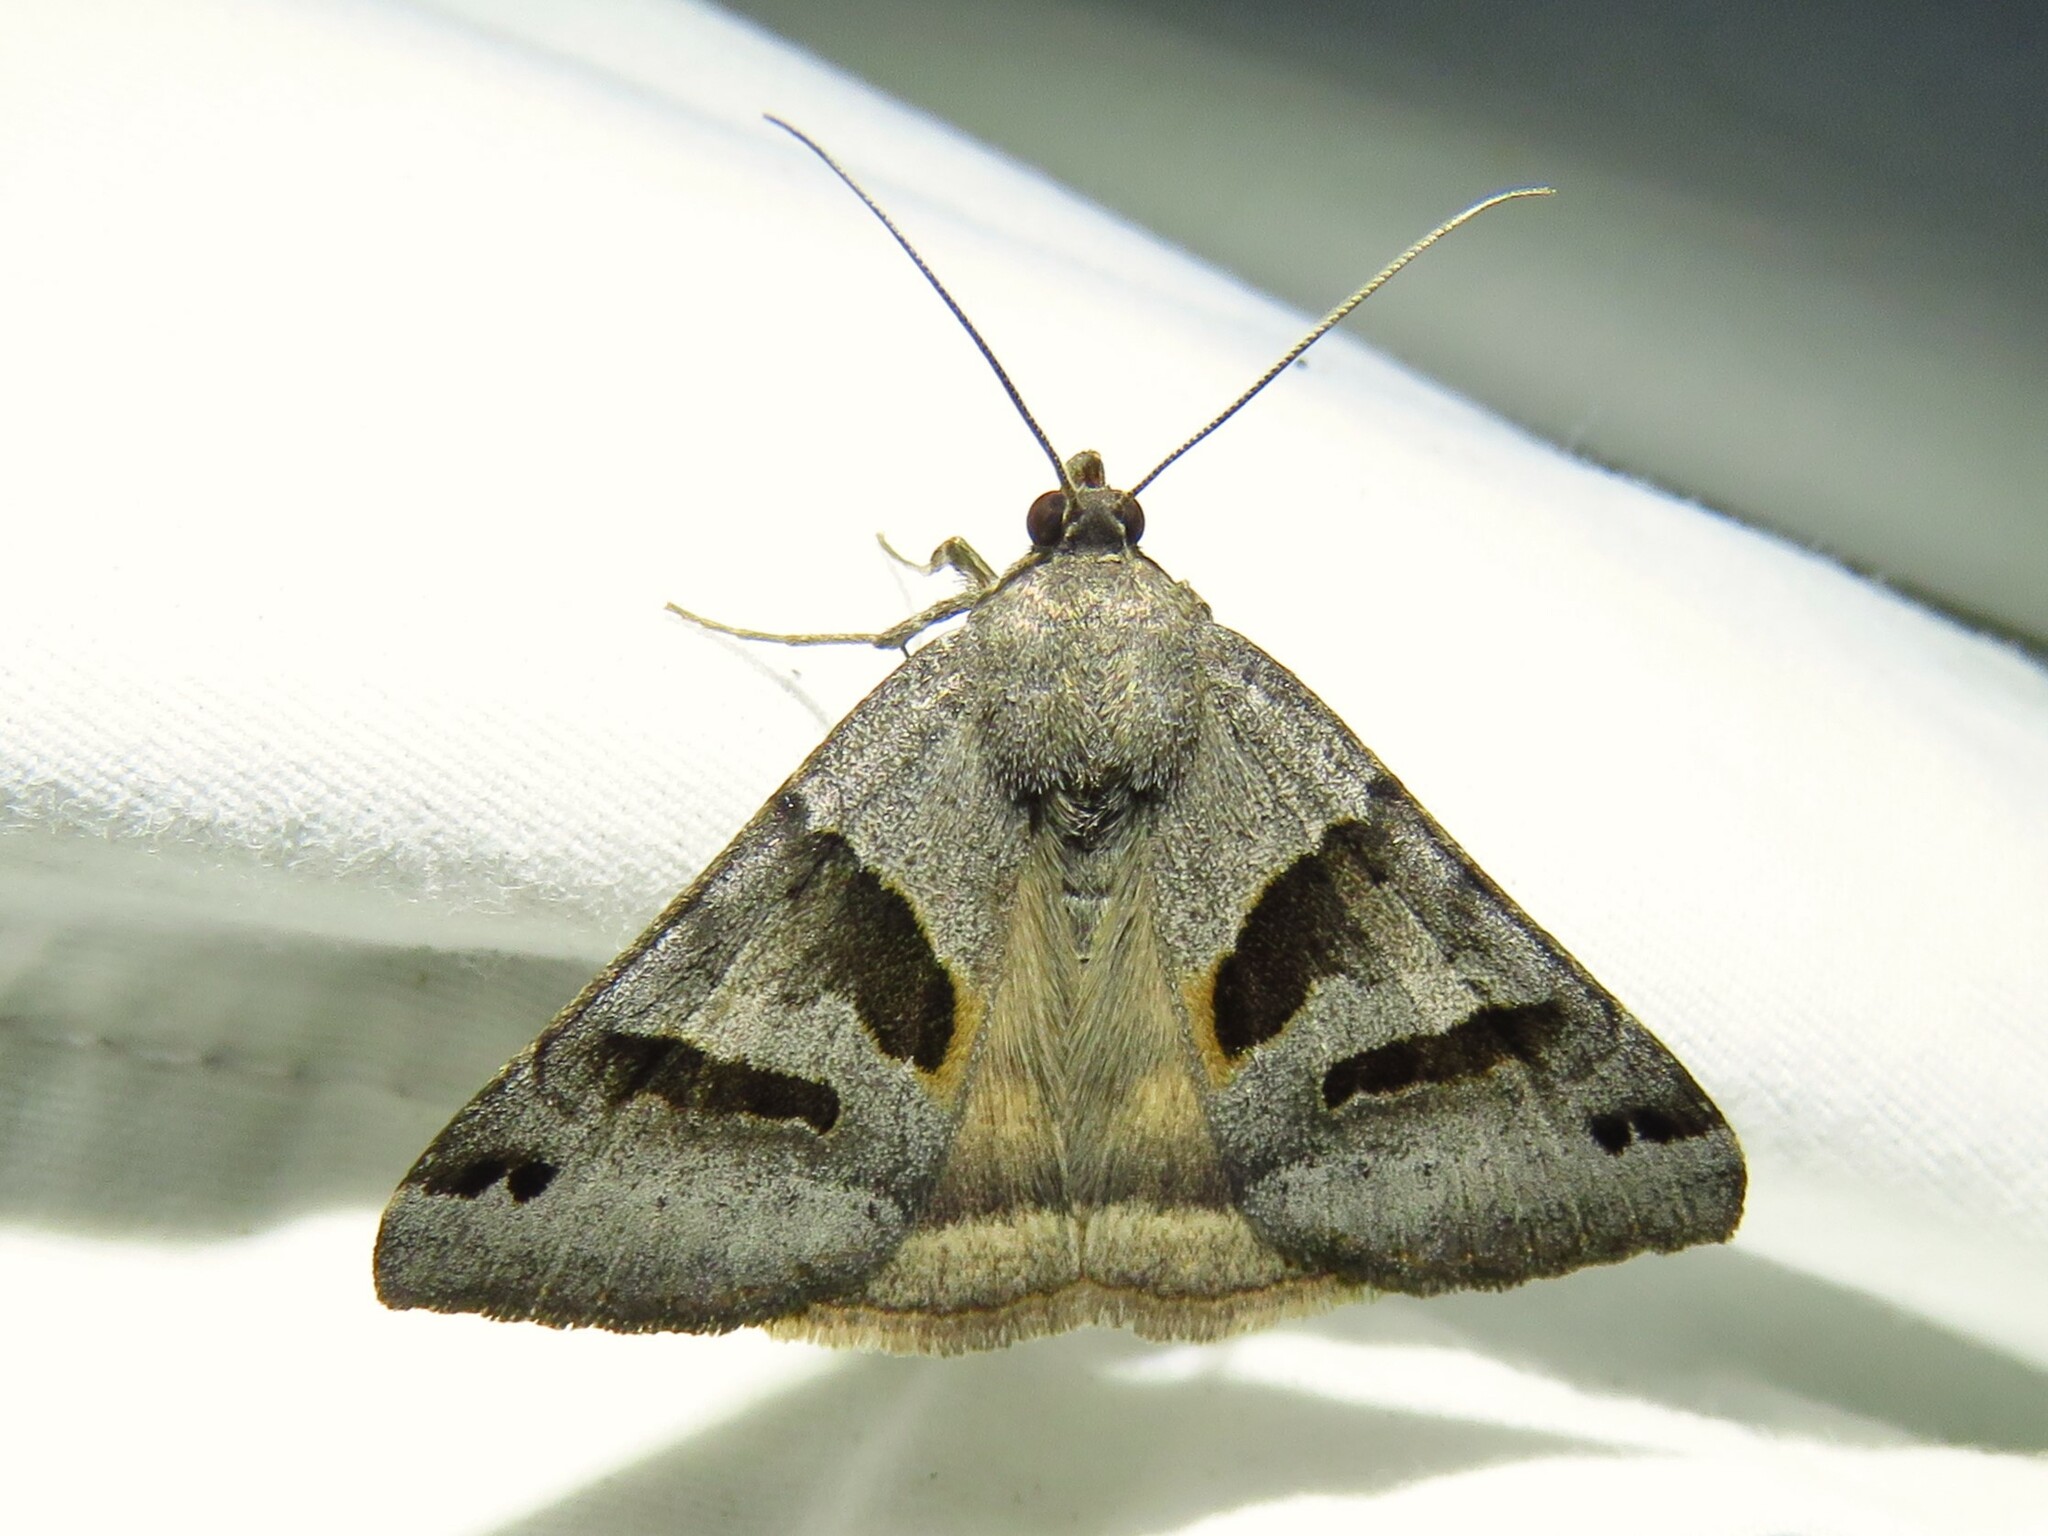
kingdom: Animalia
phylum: Arthropoda
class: Insecta
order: Lepidoptera
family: Erebidae
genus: Caenurgina
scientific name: Caenurgina erechtea
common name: Forage looper moth
